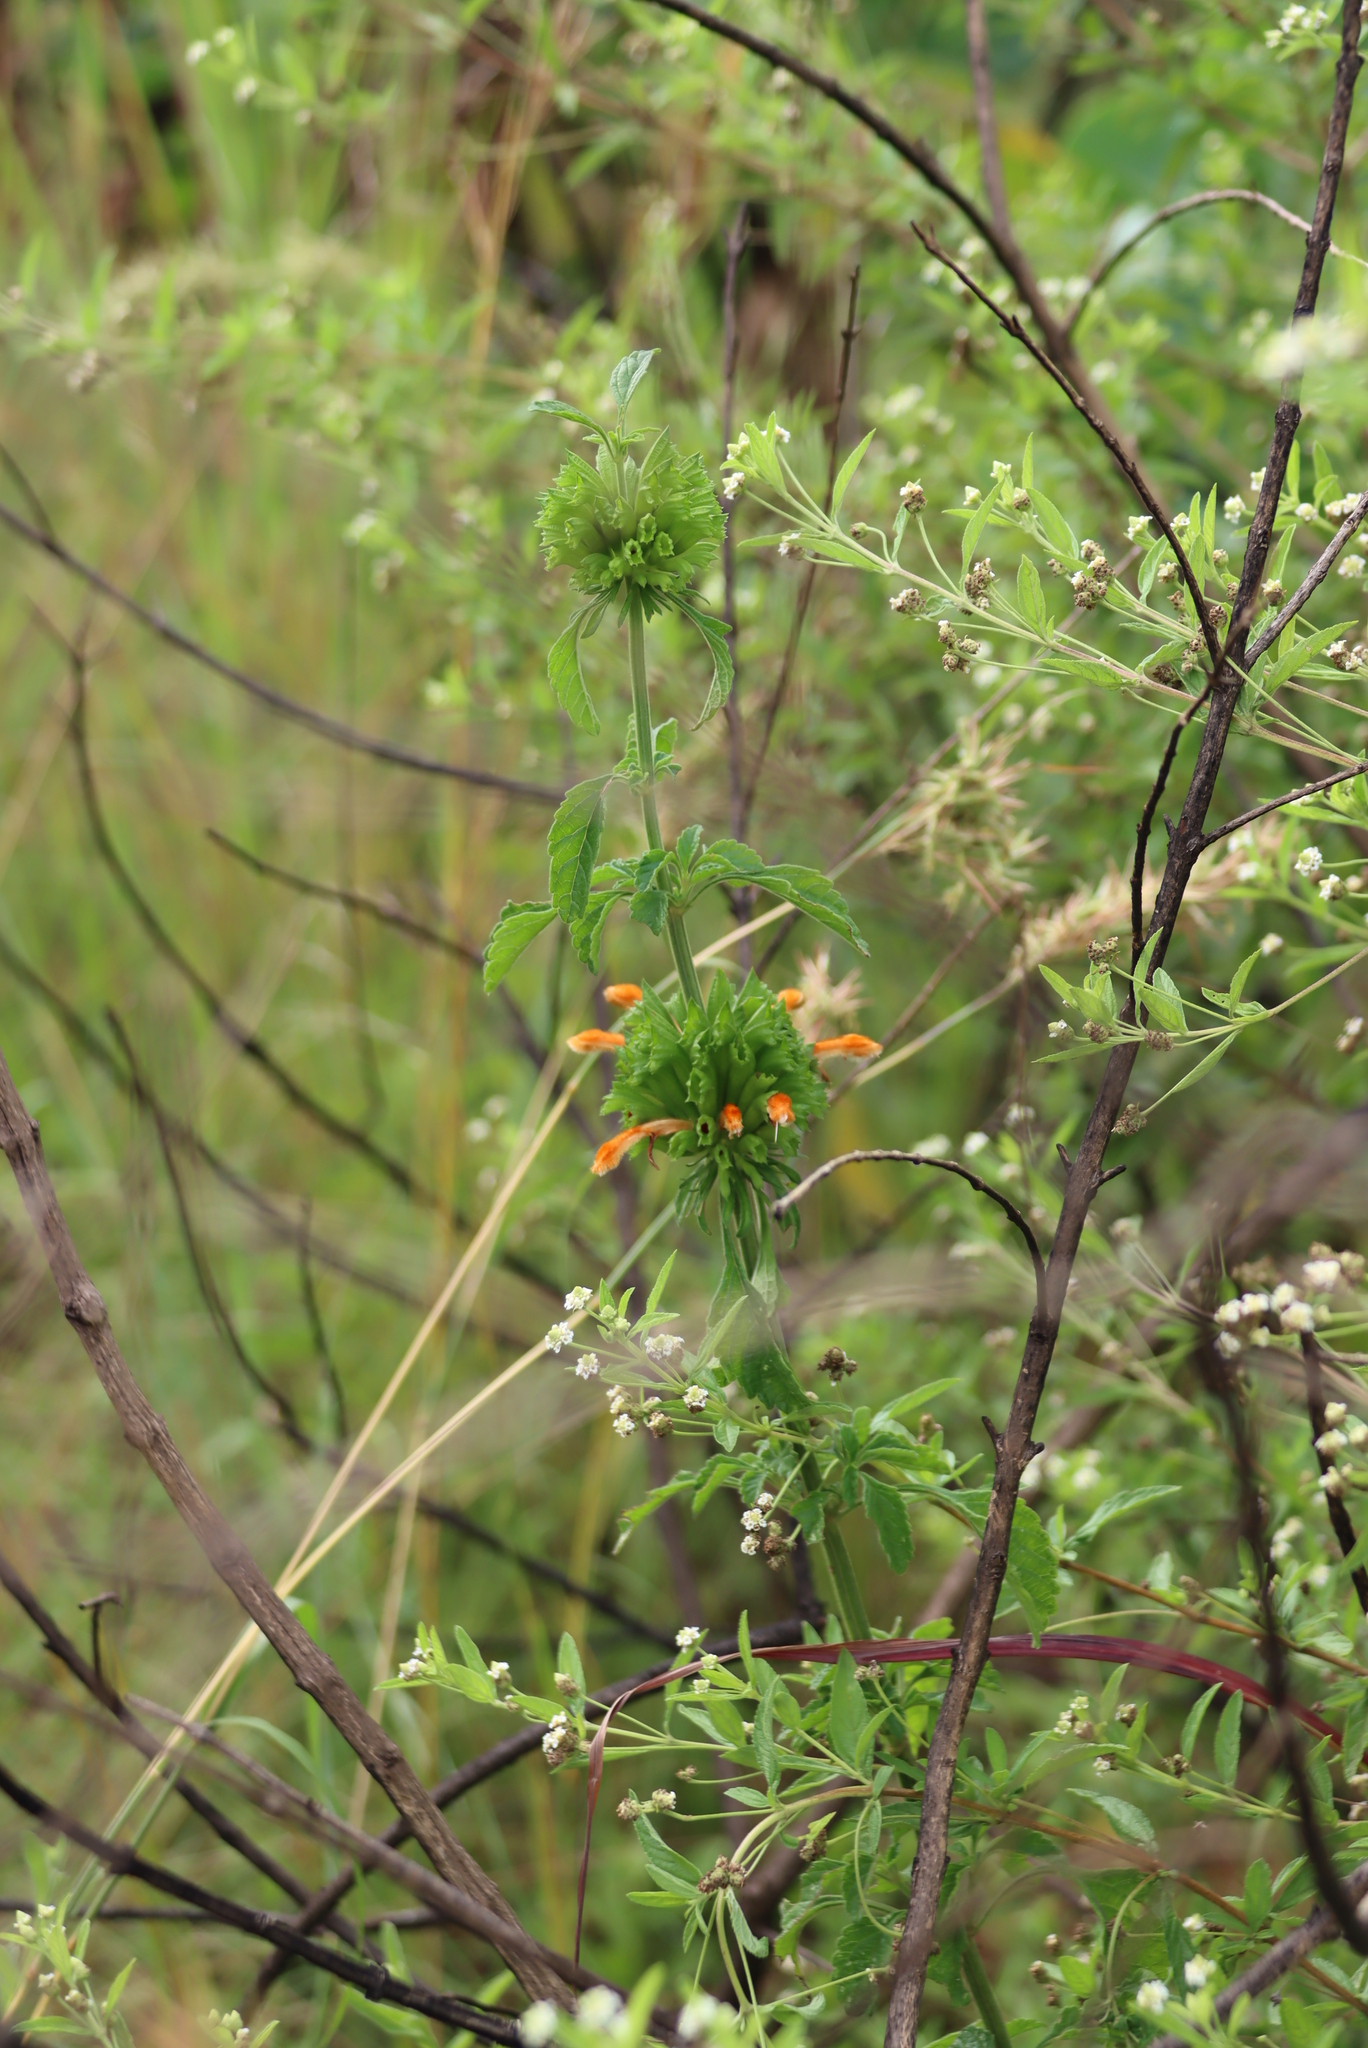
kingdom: Plantae
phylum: Tracheophyta
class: Magnoliopsida
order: Lamiales
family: Lamiaceae
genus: Leonotis
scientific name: Leonotis ocymifolia
